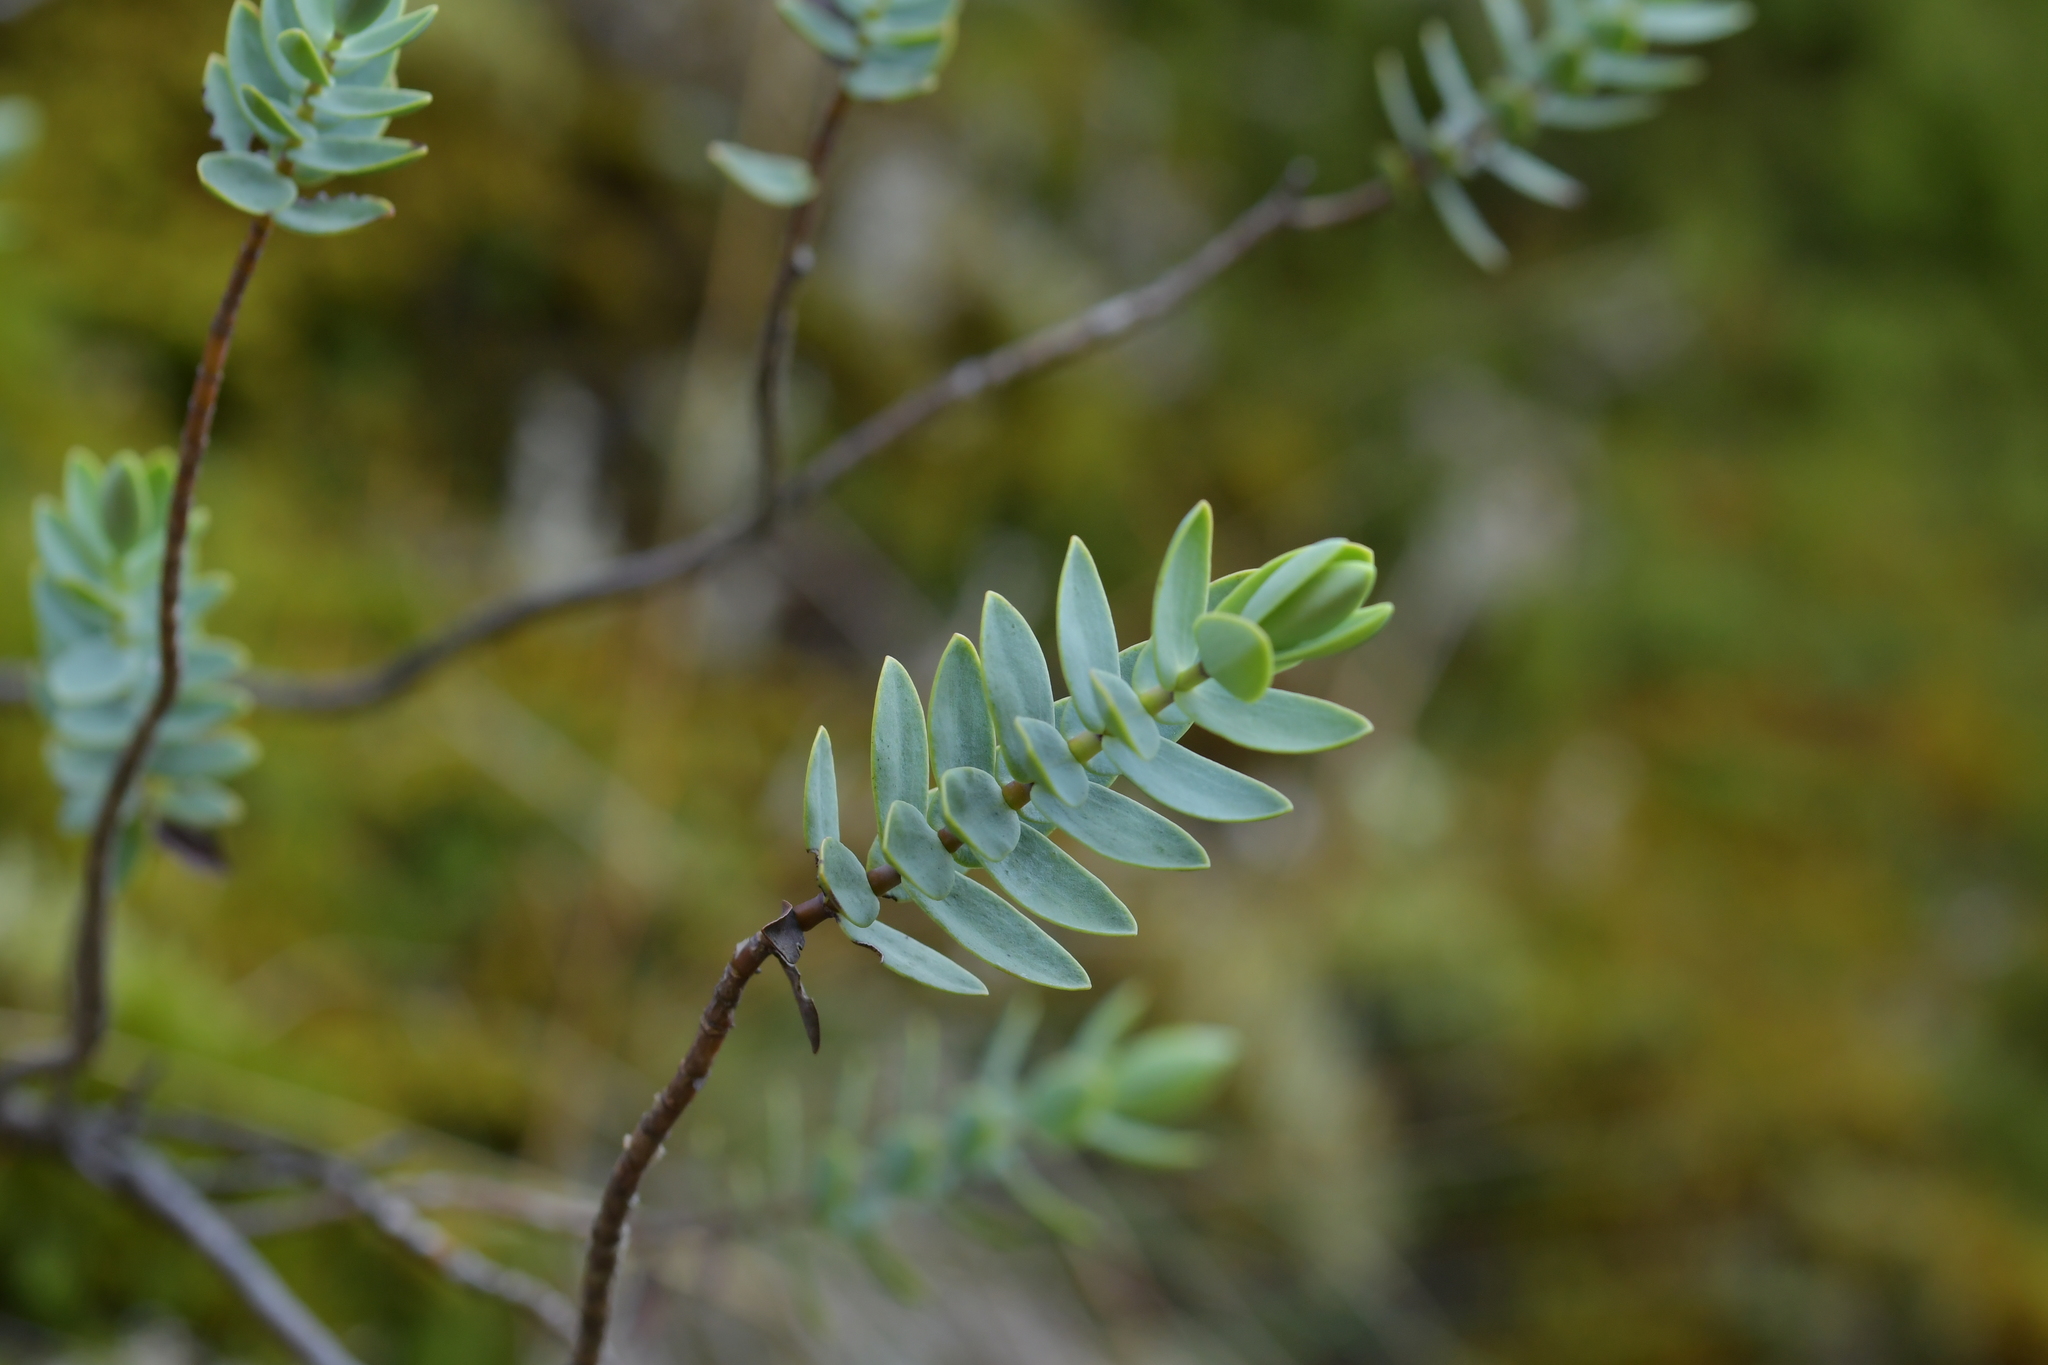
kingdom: Plantae
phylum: Tracheophyta
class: Magnoliopsida
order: Lamiales
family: Plantaginaceae
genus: Veronica
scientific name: Veronica pinguifolia
